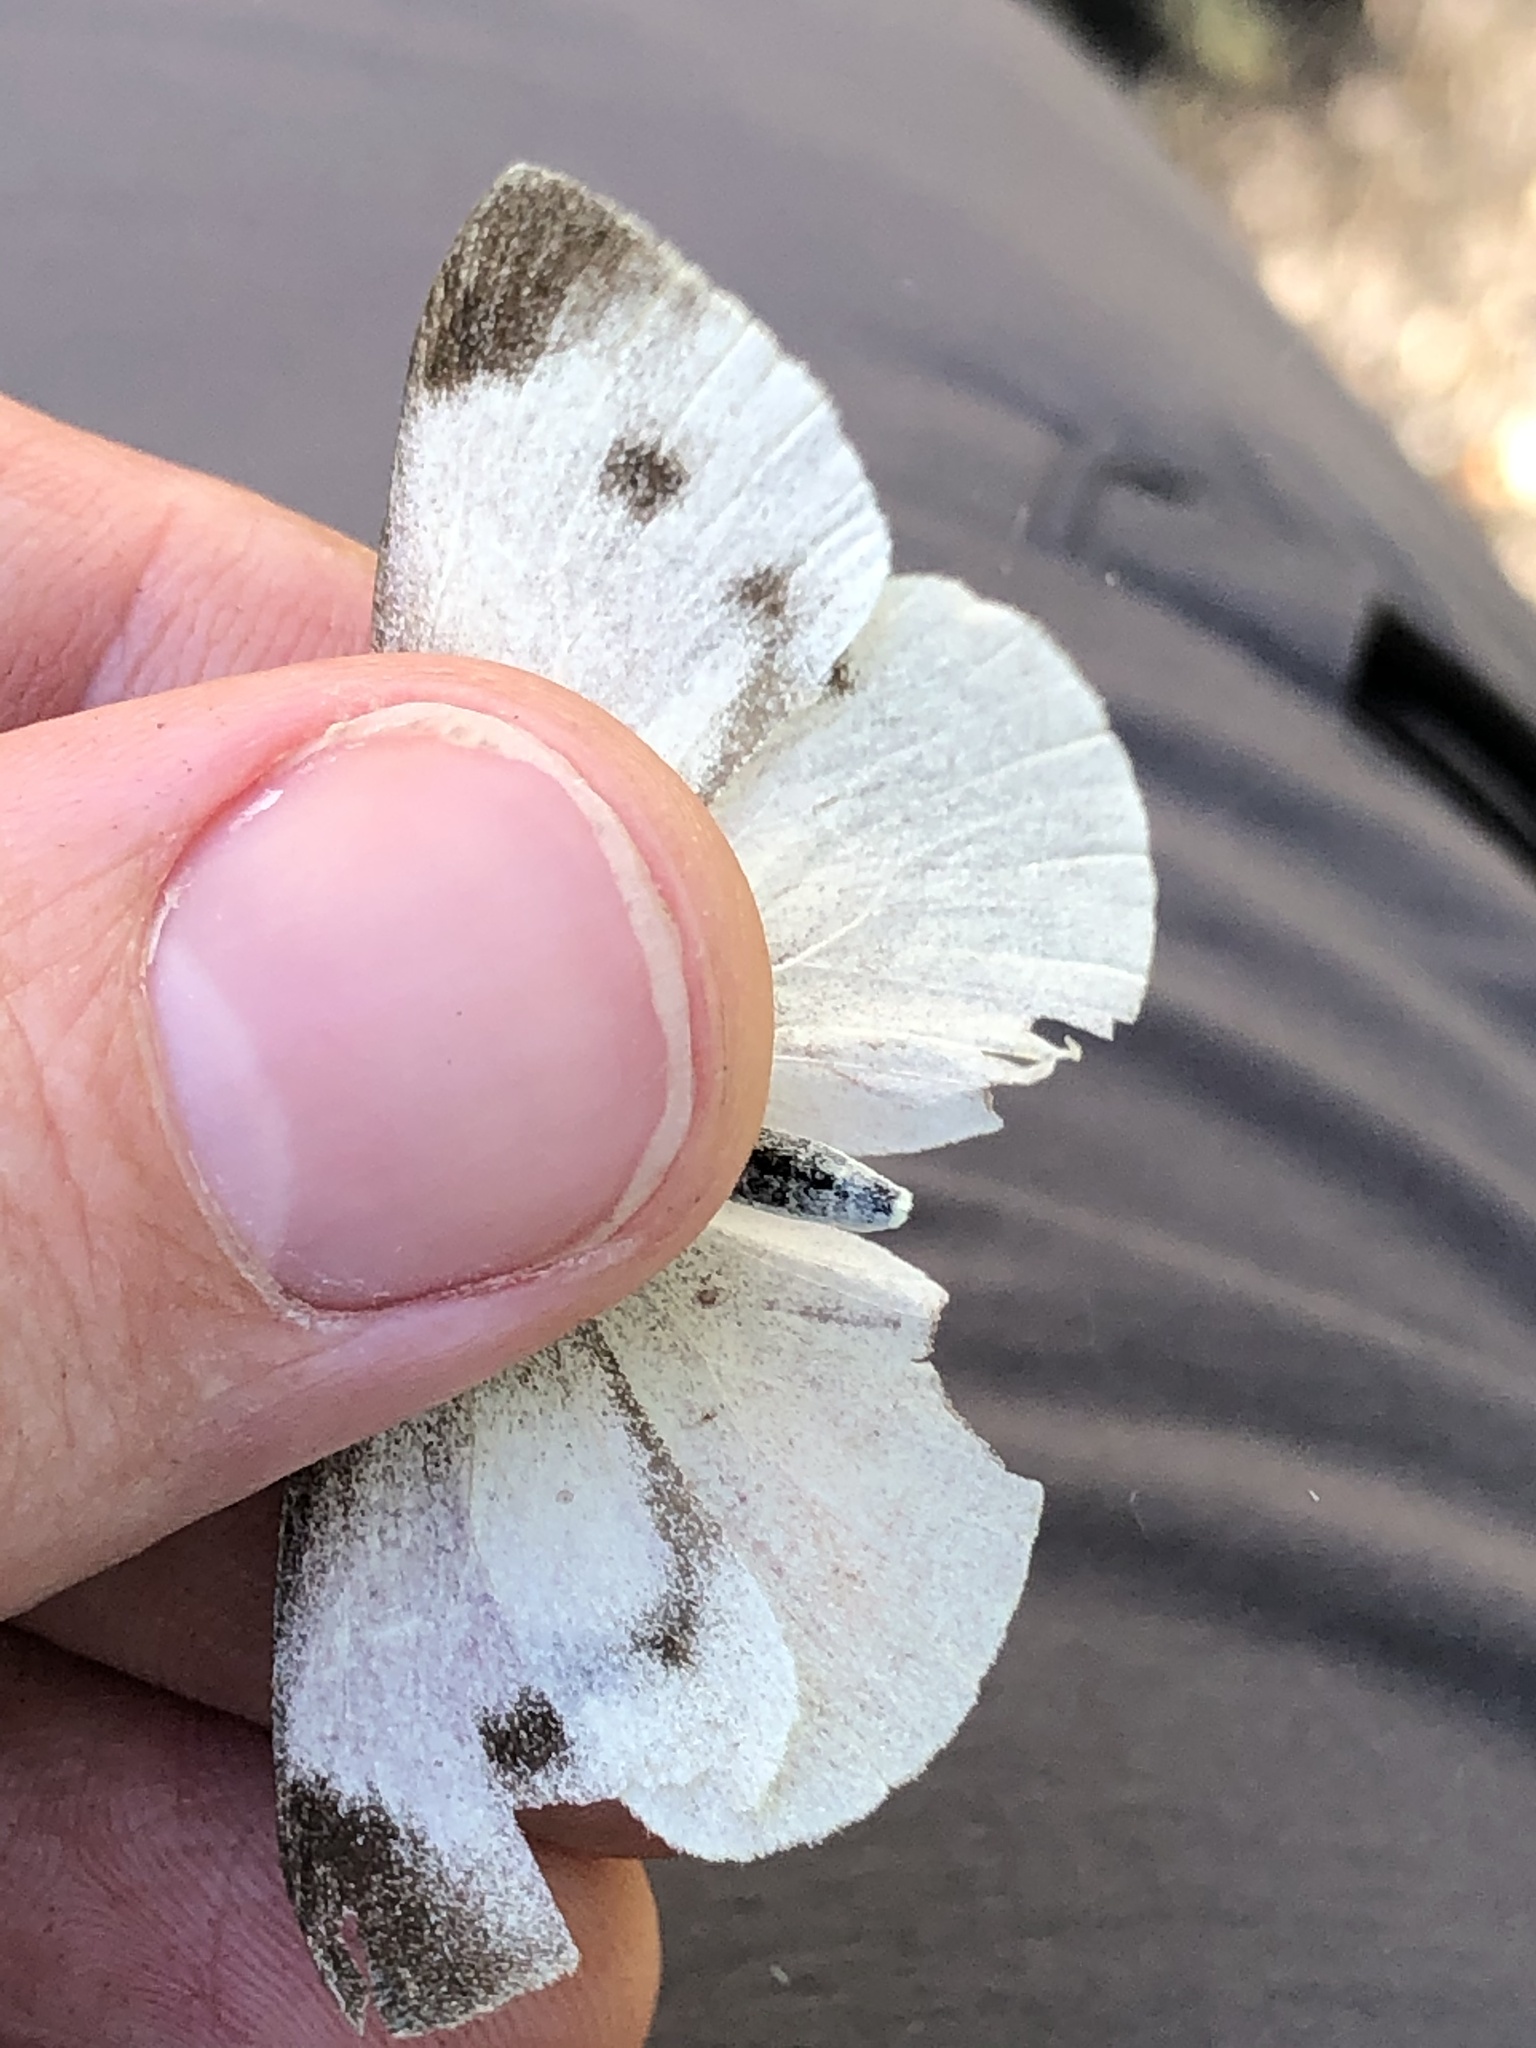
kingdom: Animalia
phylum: Arthropoda
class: Insecta
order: Lepidoptera
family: Pieridae
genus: Pieris
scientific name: Pieris mannii
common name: Southern small white
